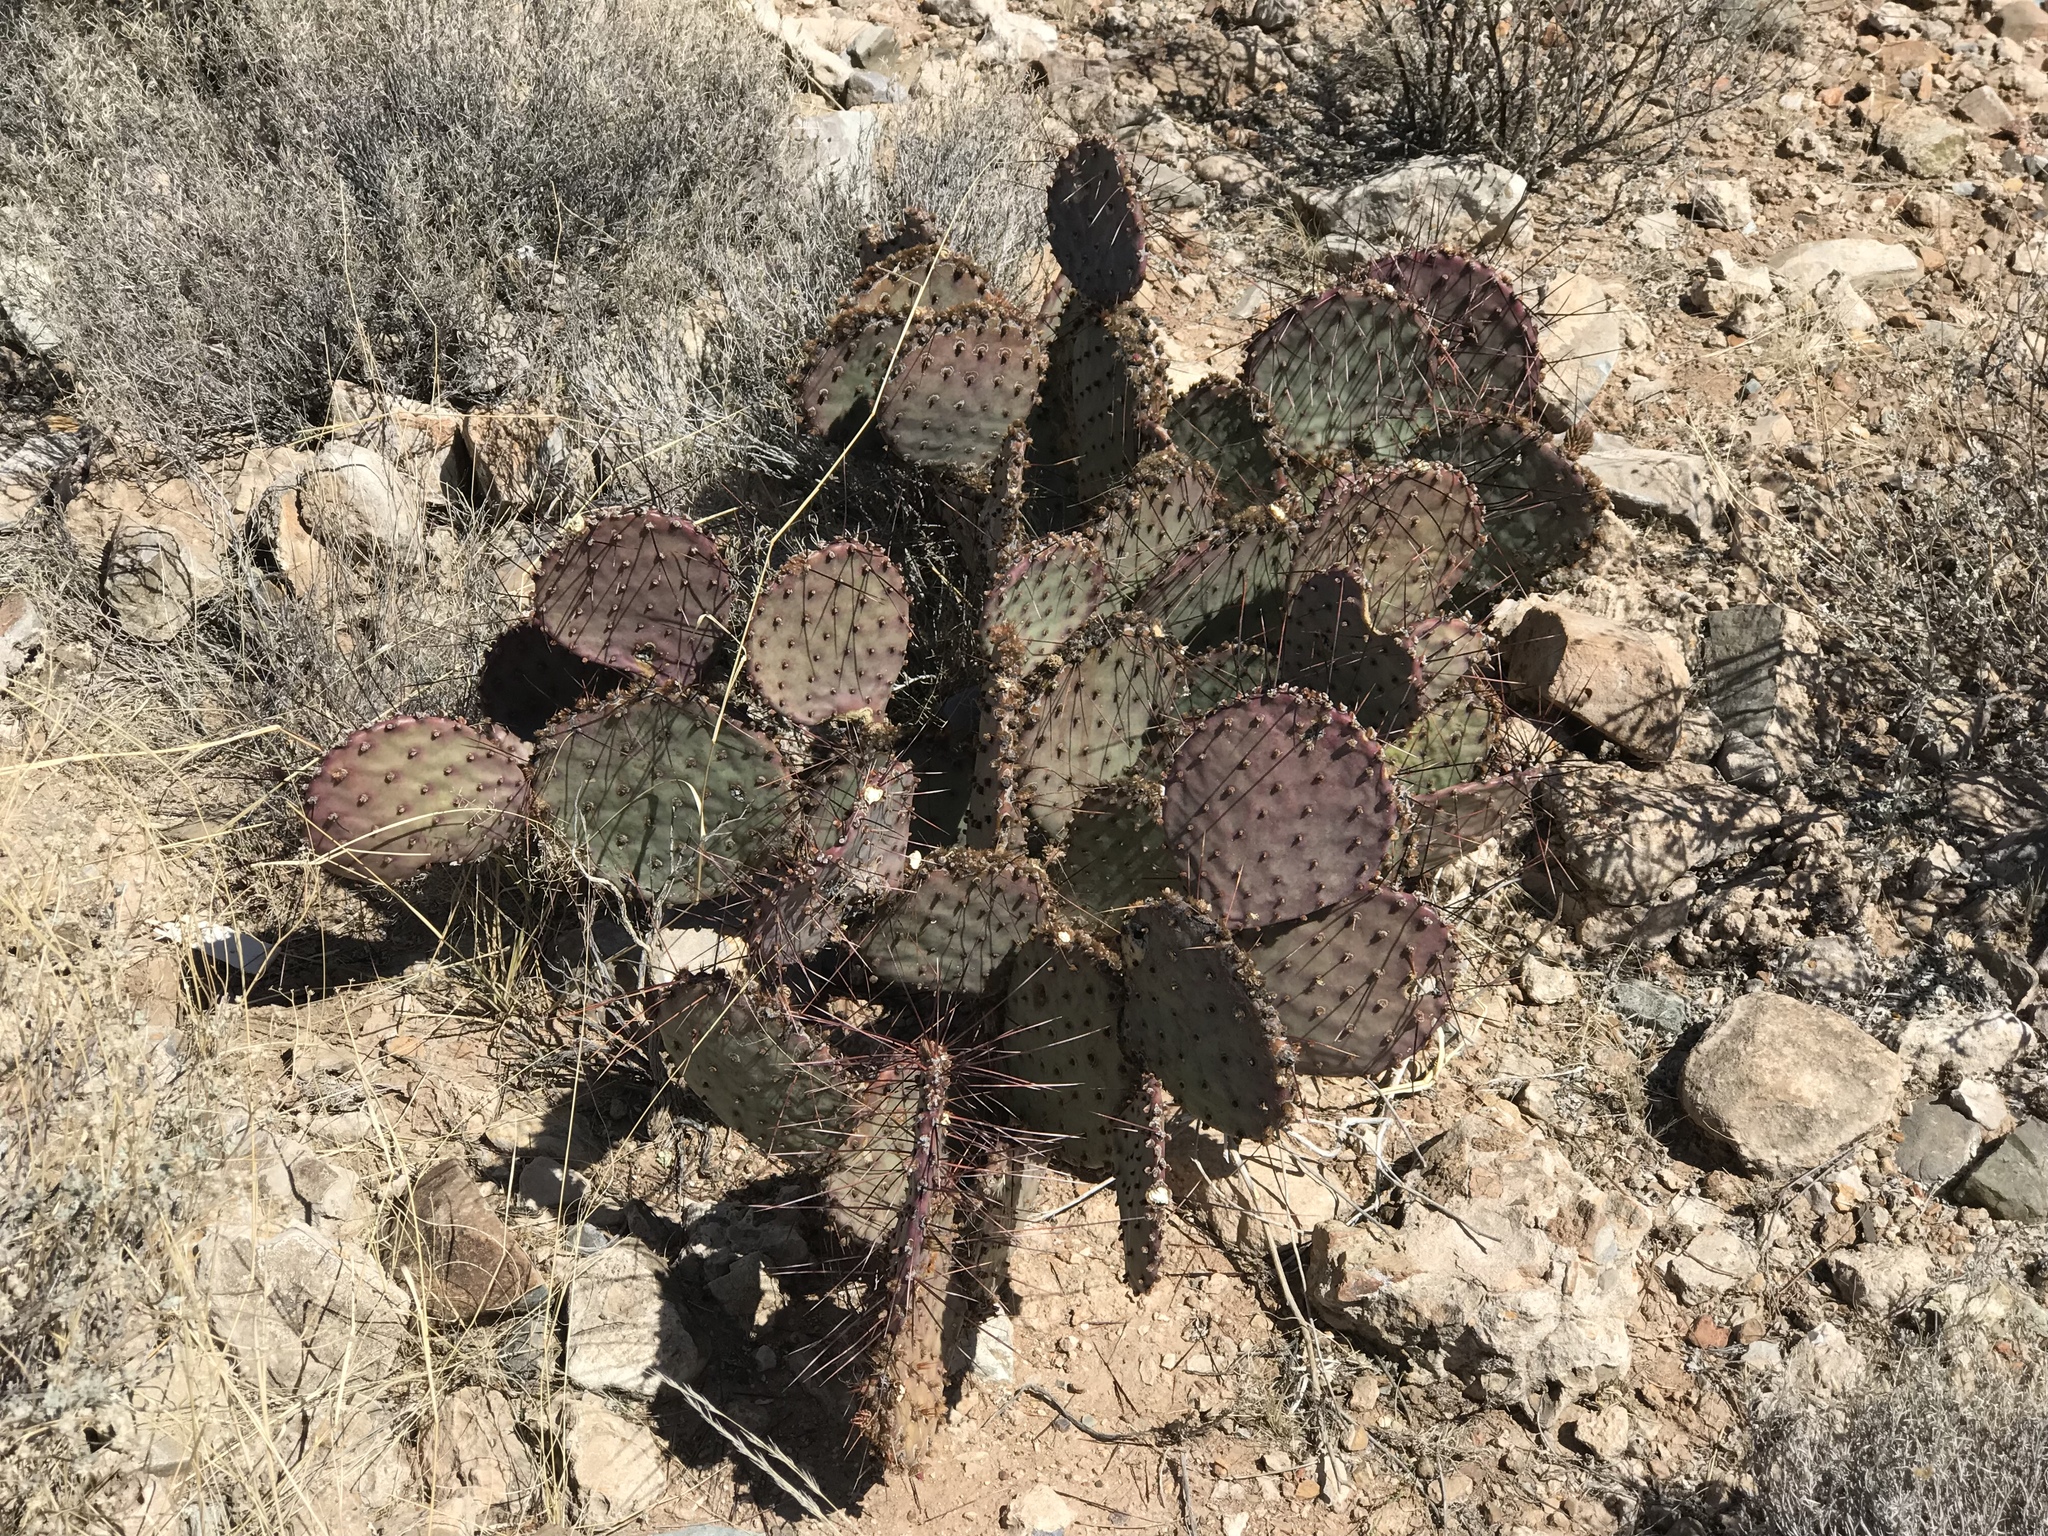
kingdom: Plantae
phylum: Tracheophyta
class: Magnoliopsida
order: Caryophyllales
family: Cactaceae
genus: Opuntia
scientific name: Opuntia macrocentra
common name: Purple prickly-pear
